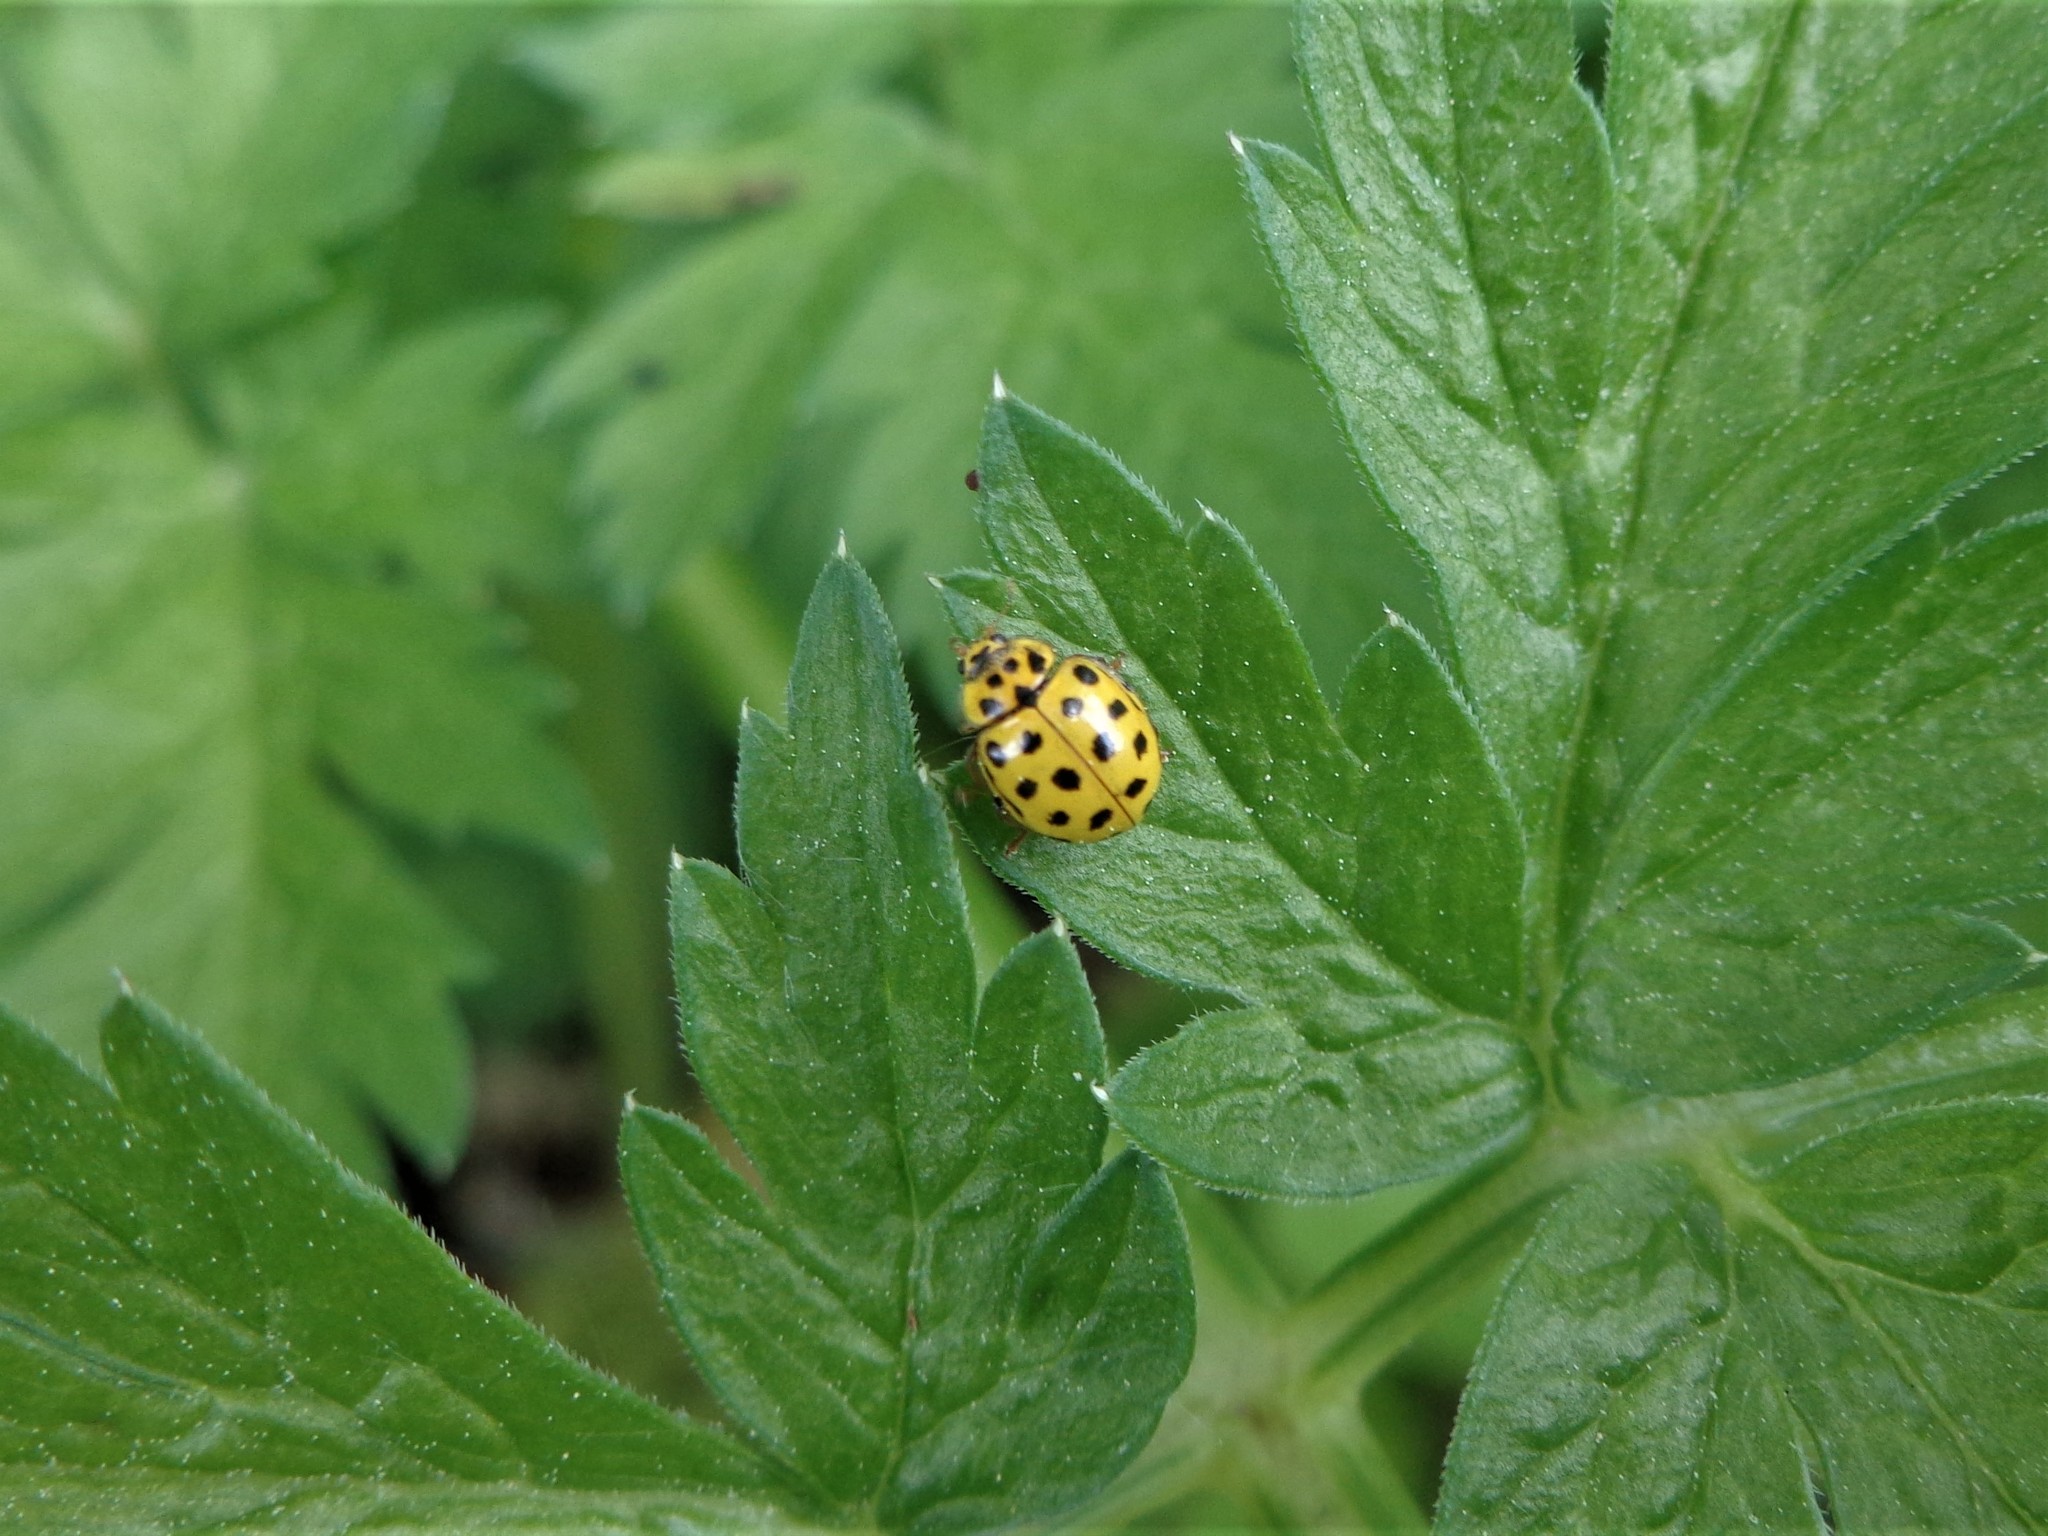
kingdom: Animalia
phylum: Arthropoda
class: Insecta
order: Coleoptera
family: Coccinellidae
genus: Psyllobora
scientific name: Psyllobora vigintiduopunctata
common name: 22-spot ladybird
